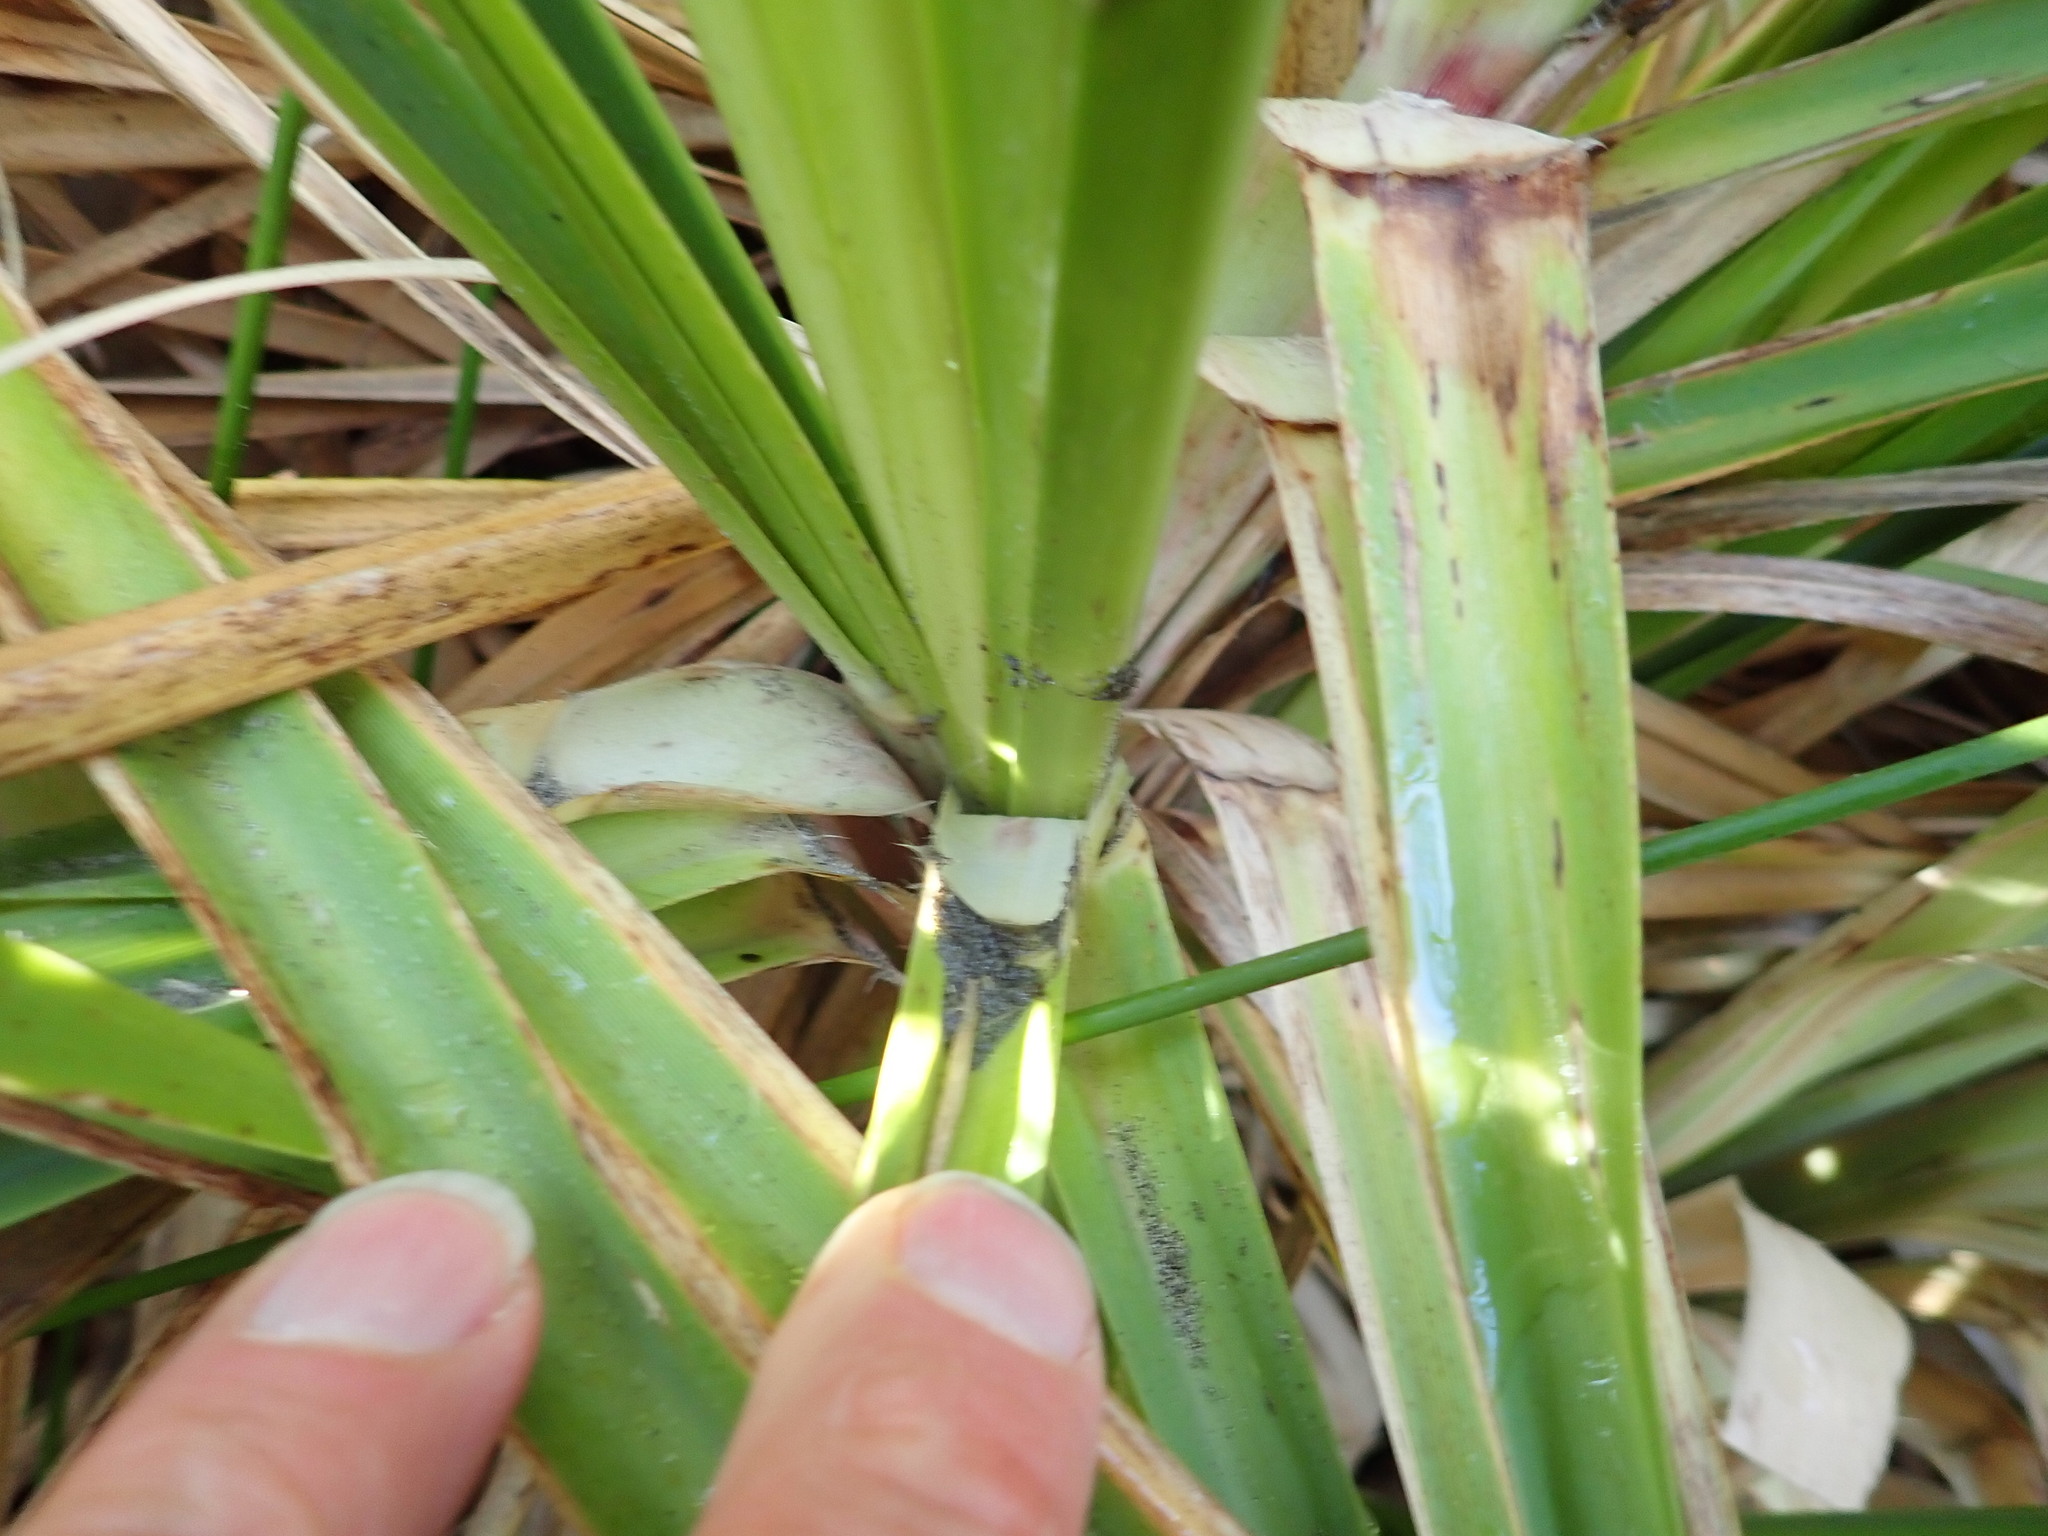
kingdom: Plantae
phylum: Tracheophyta
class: Liliopsida
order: Poales
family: Poaceae
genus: Cortaderia
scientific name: Cortaderia selloana
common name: Uruguayan pampas grass
